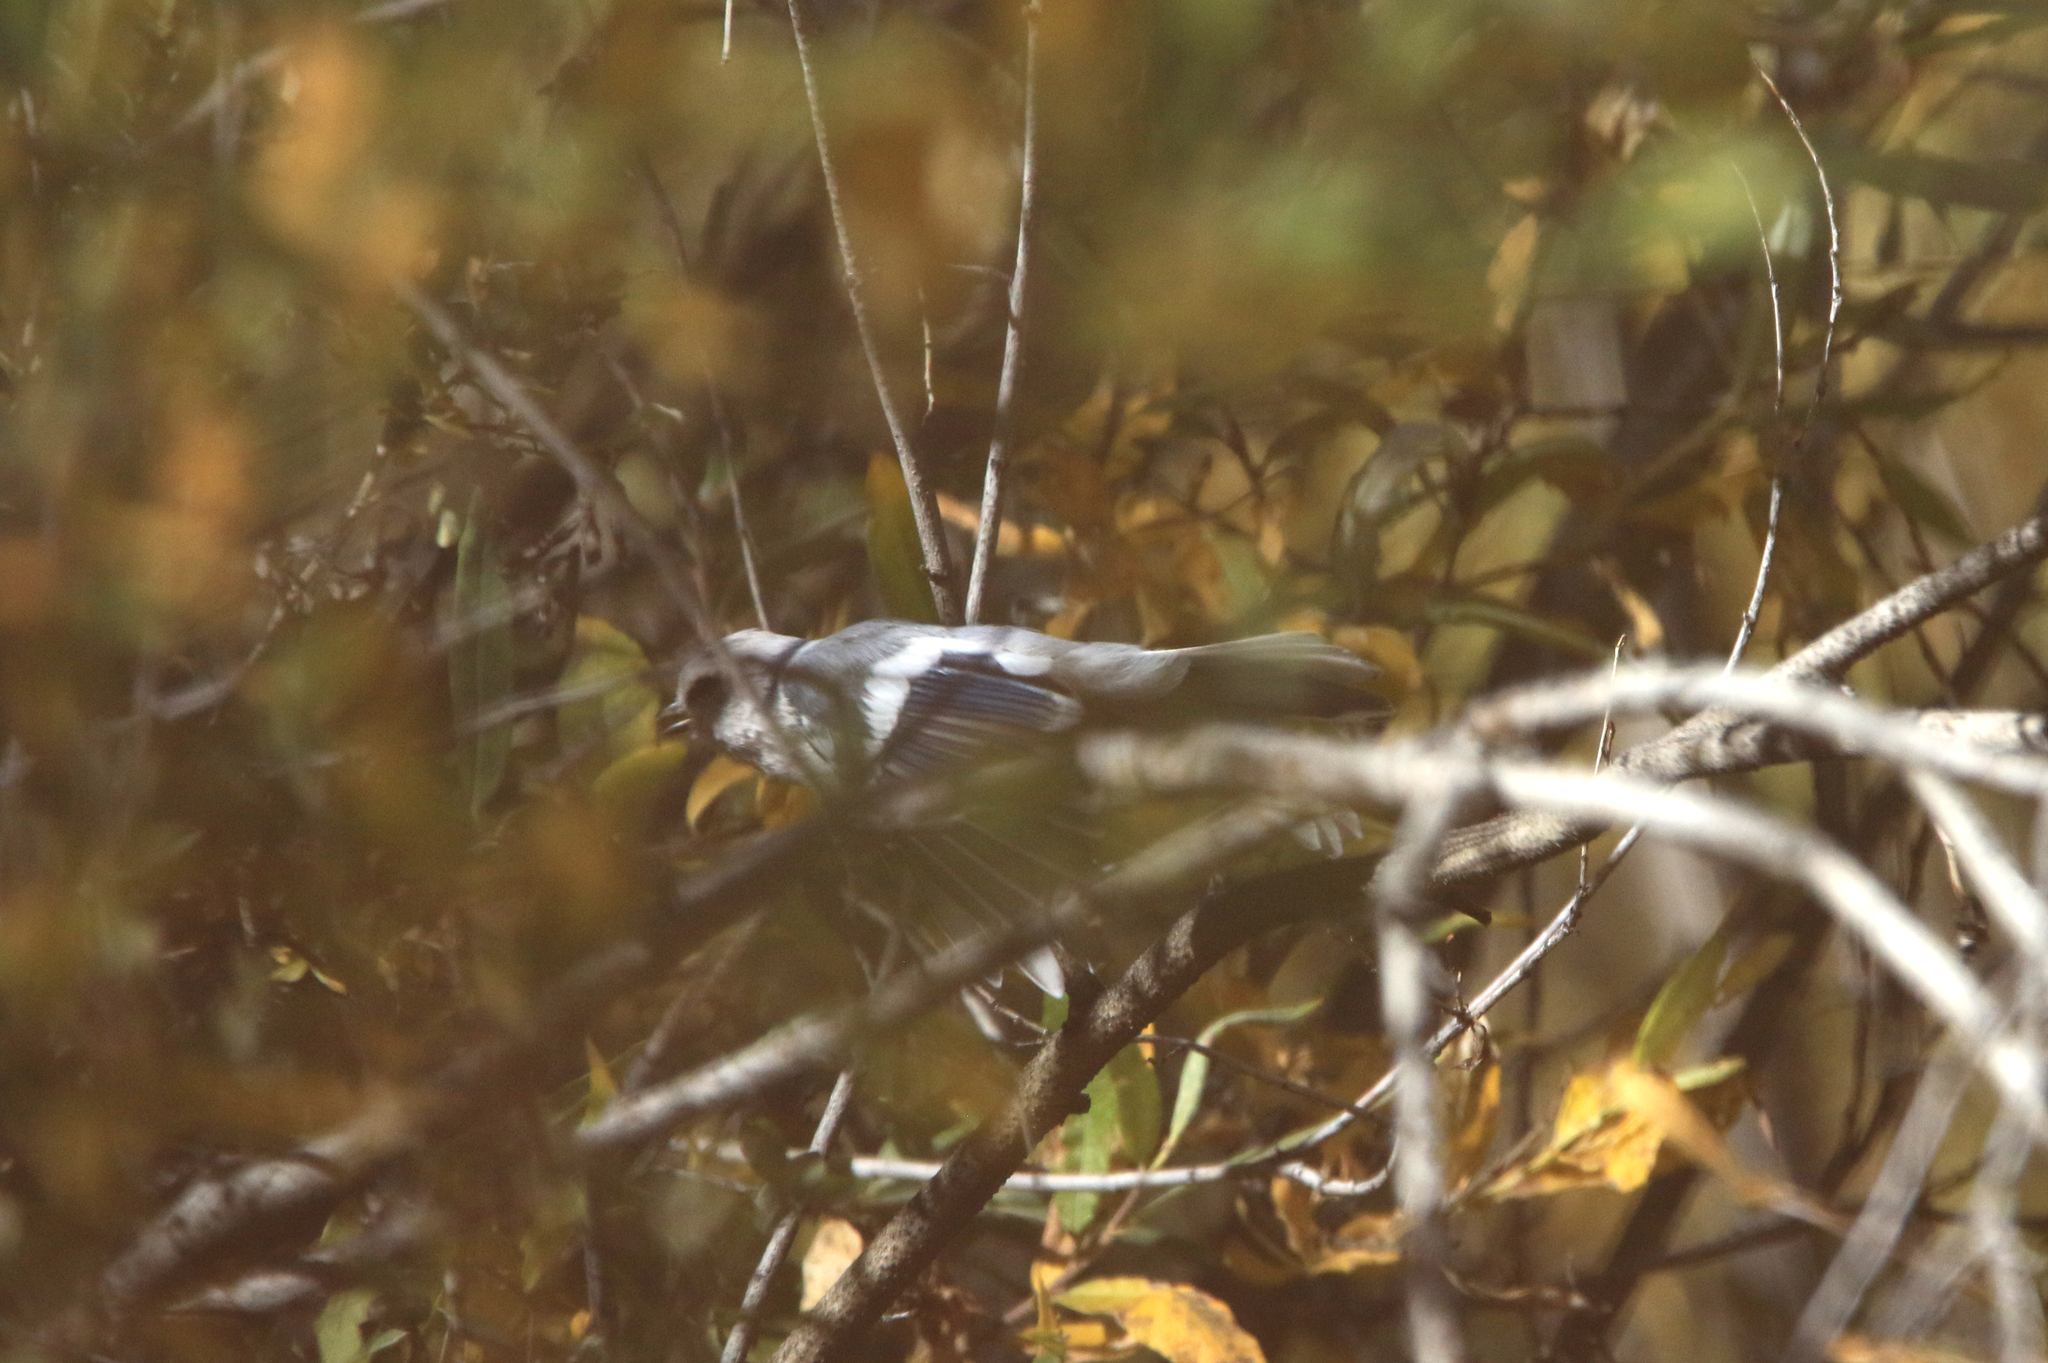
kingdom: Animalia
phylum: Chordata
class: Aves
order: Passeriformes
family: Paridae
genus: Cyanistes
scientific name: Cyanistes cyanus
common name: Azure tit
